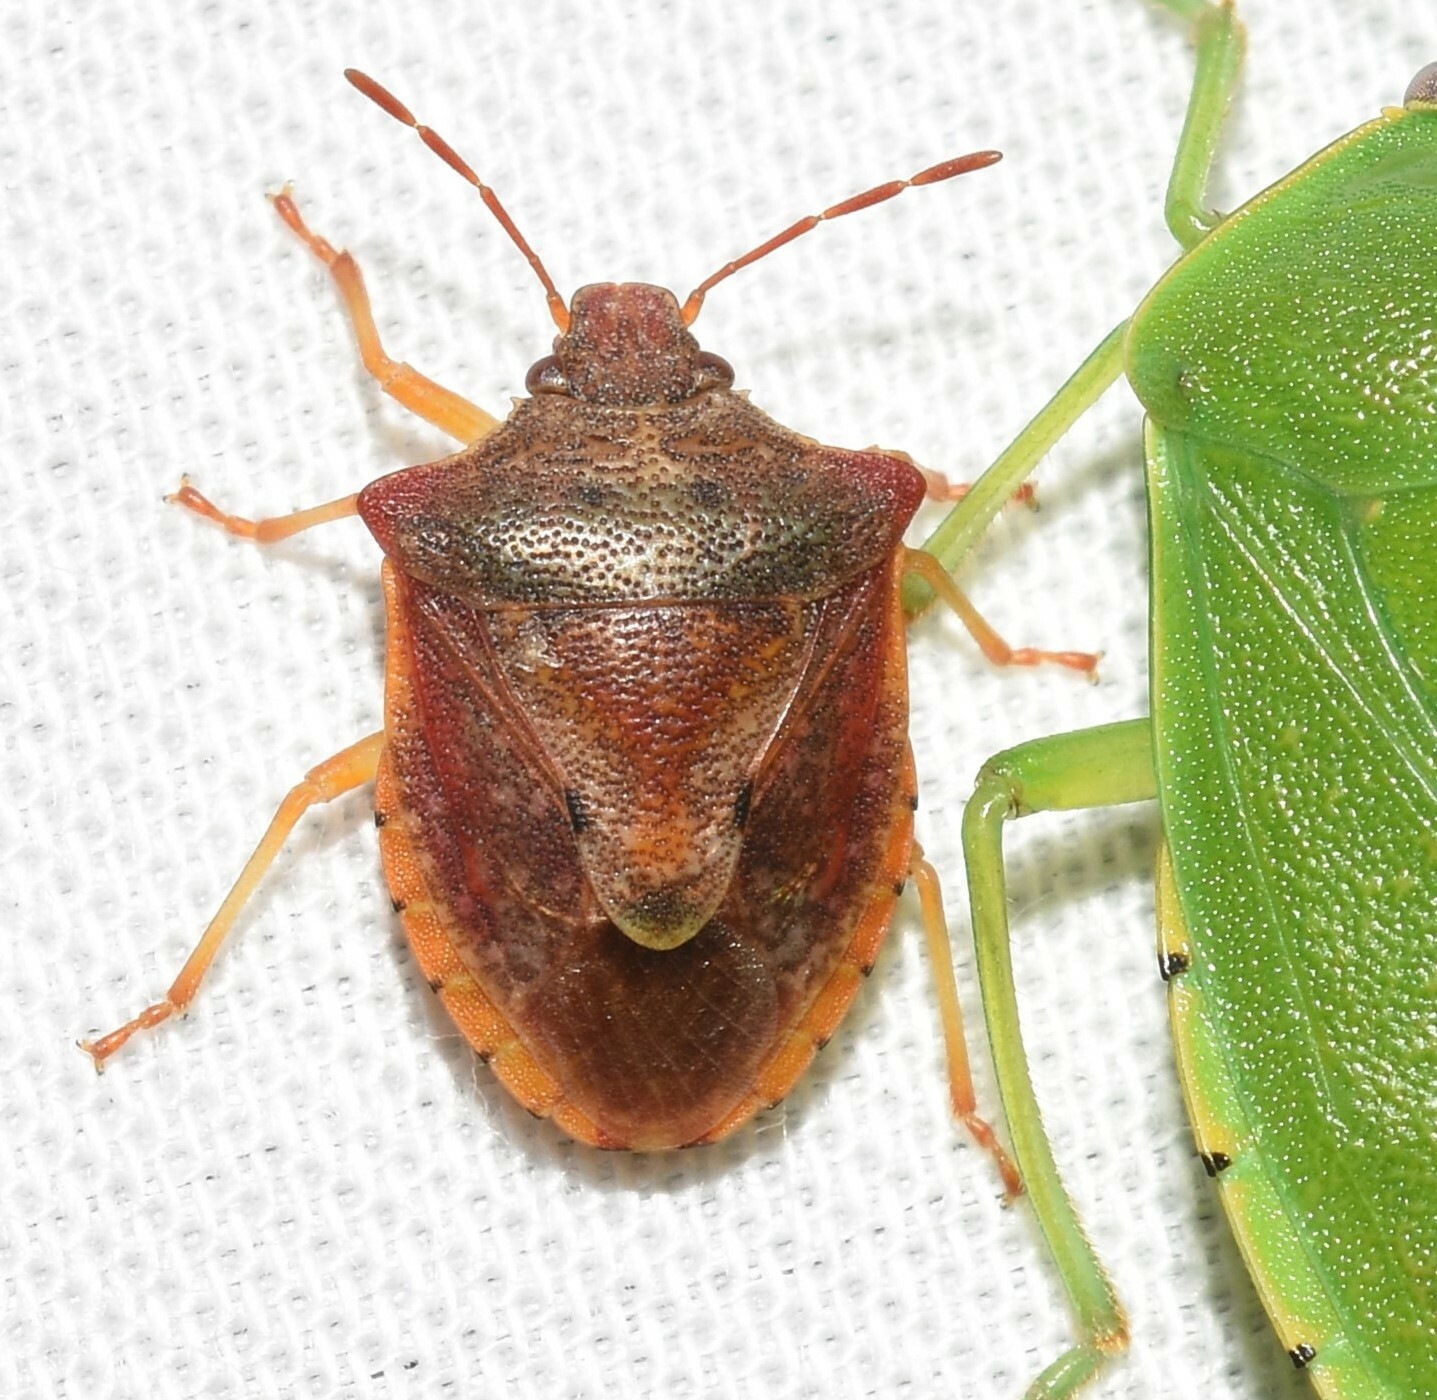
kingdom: Animalia
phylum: Arthropoda
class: Insecta
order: Hemiptera
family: Pentatomidae
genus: Dendrocoris
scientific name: Dendrocoris humeralis
